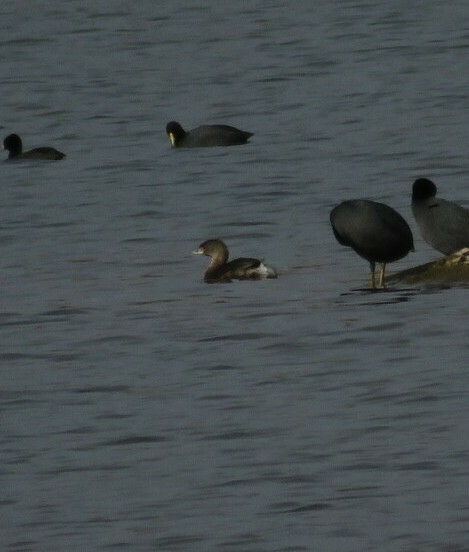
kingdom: Animalia
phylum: Chordata
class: Aves
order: Podicipediformes
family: Podicipedidae
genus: Podilymbus
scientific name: Podilymbus podiceps
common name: Pied-billed grebe
